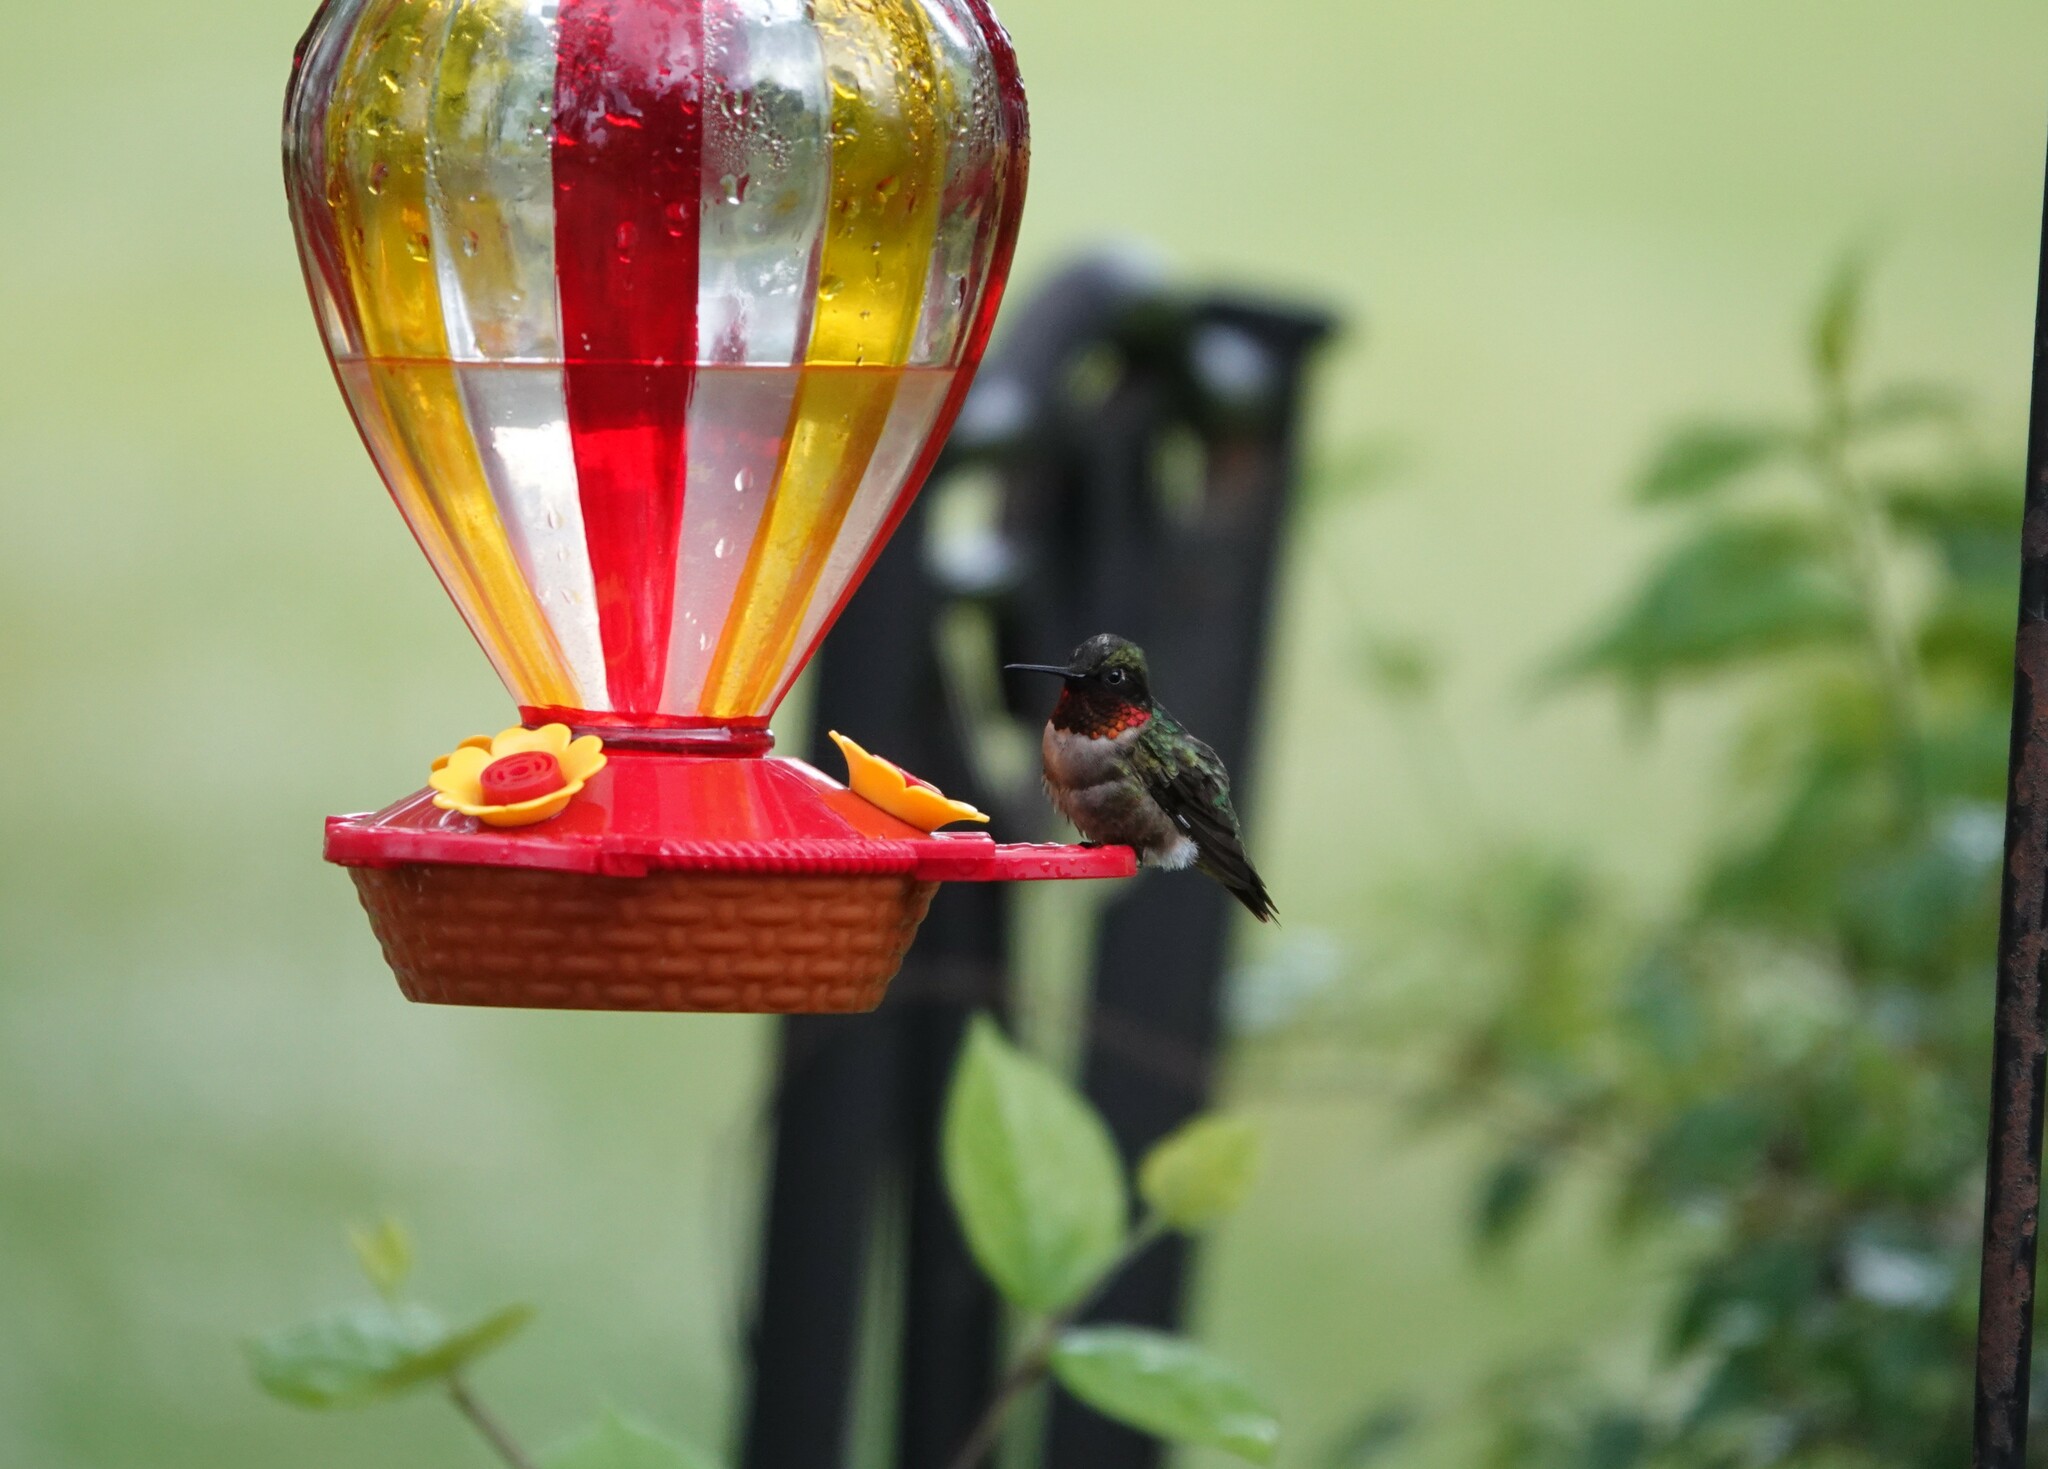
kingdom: Animalia
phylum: Chordata
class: Aves
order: Apodiformes
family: Trochilidae
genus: Archilochus
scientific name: Archilochus colubris
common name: Ruby-throated hummingbird
